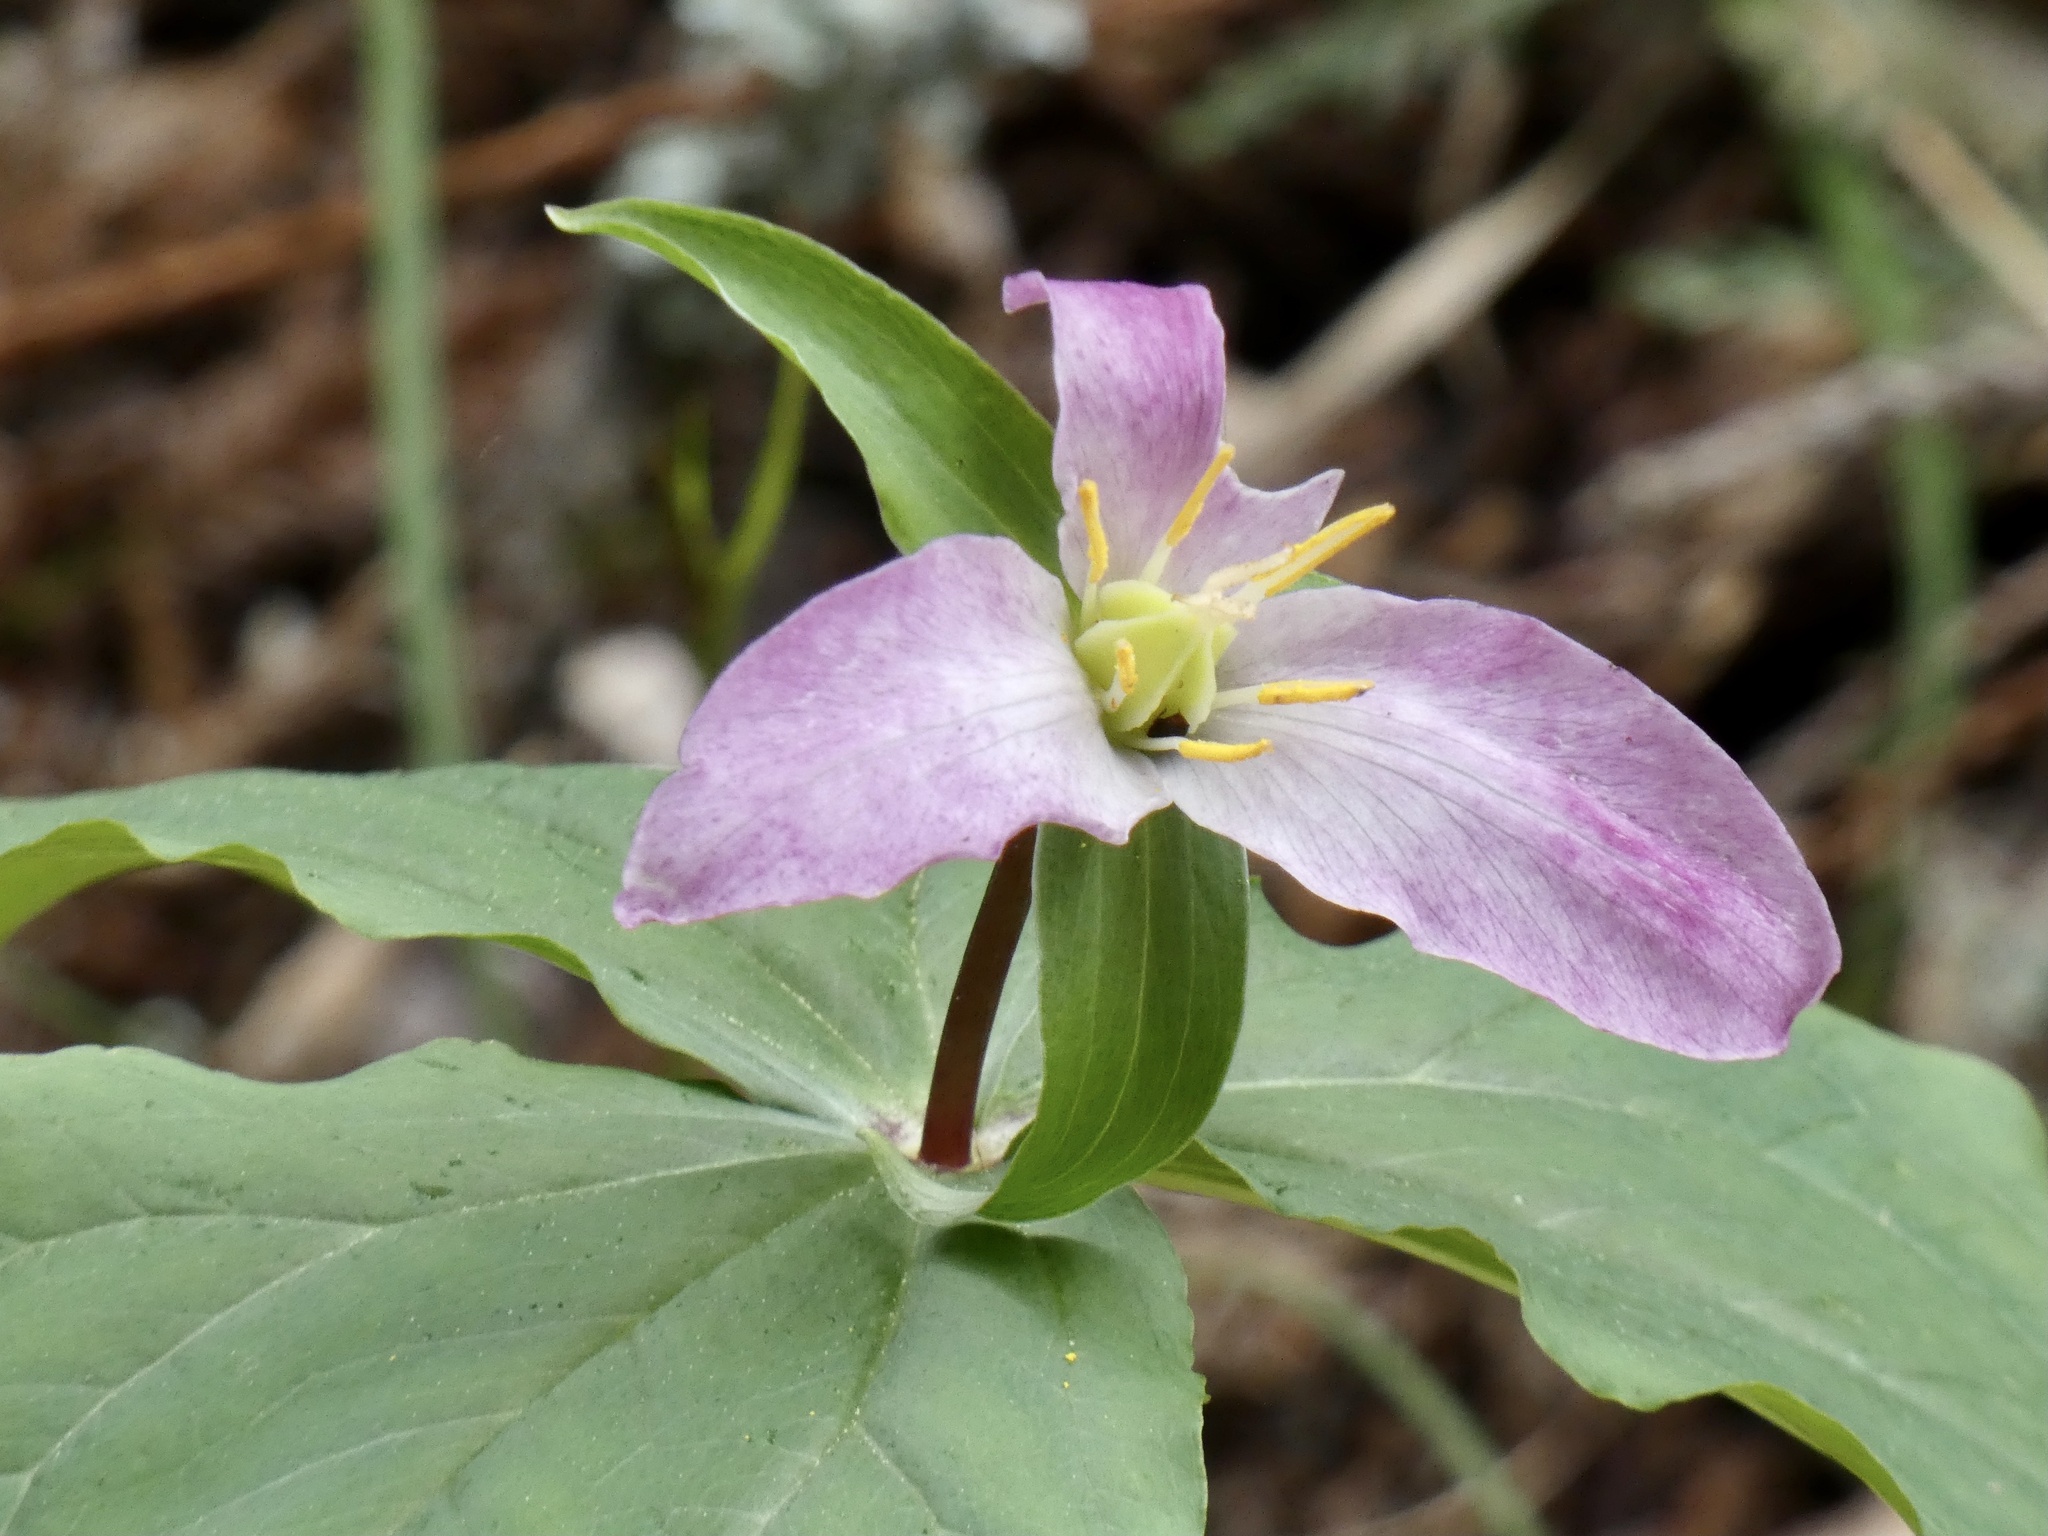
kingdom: Plantae
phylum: Tracheophyta
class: Liliopsida
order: Liliales
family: Melanthiaceae
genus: Trillium
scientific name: Trillium ovatum
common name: Pacific trillium
